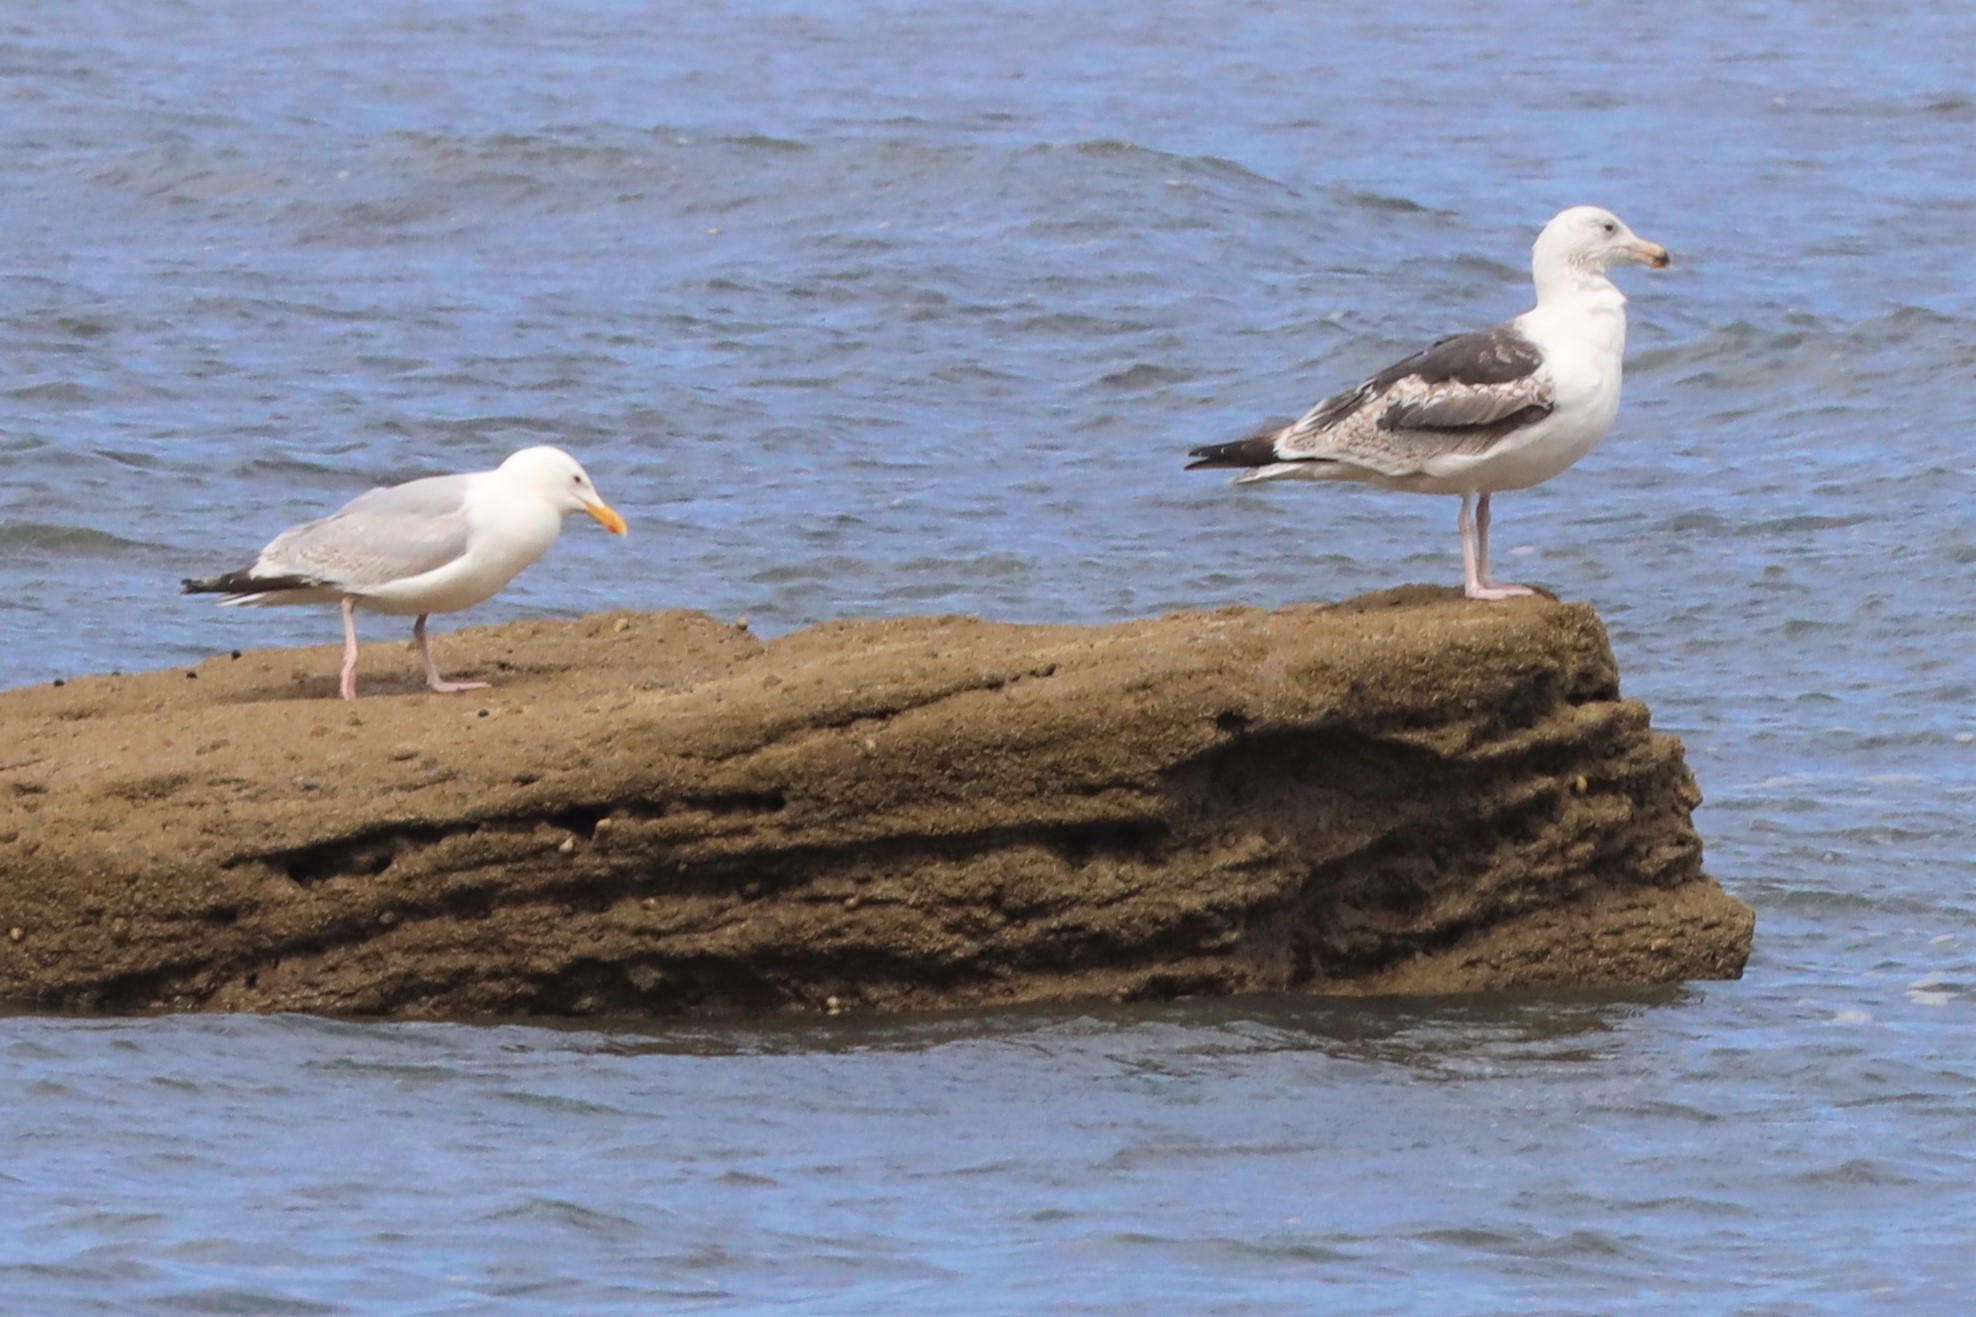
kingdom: Animalia
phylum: Chordata
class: Aves
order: Charadriiformes
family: Laridae
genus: Larus
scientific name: Larus argentatus
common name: Herring gull
